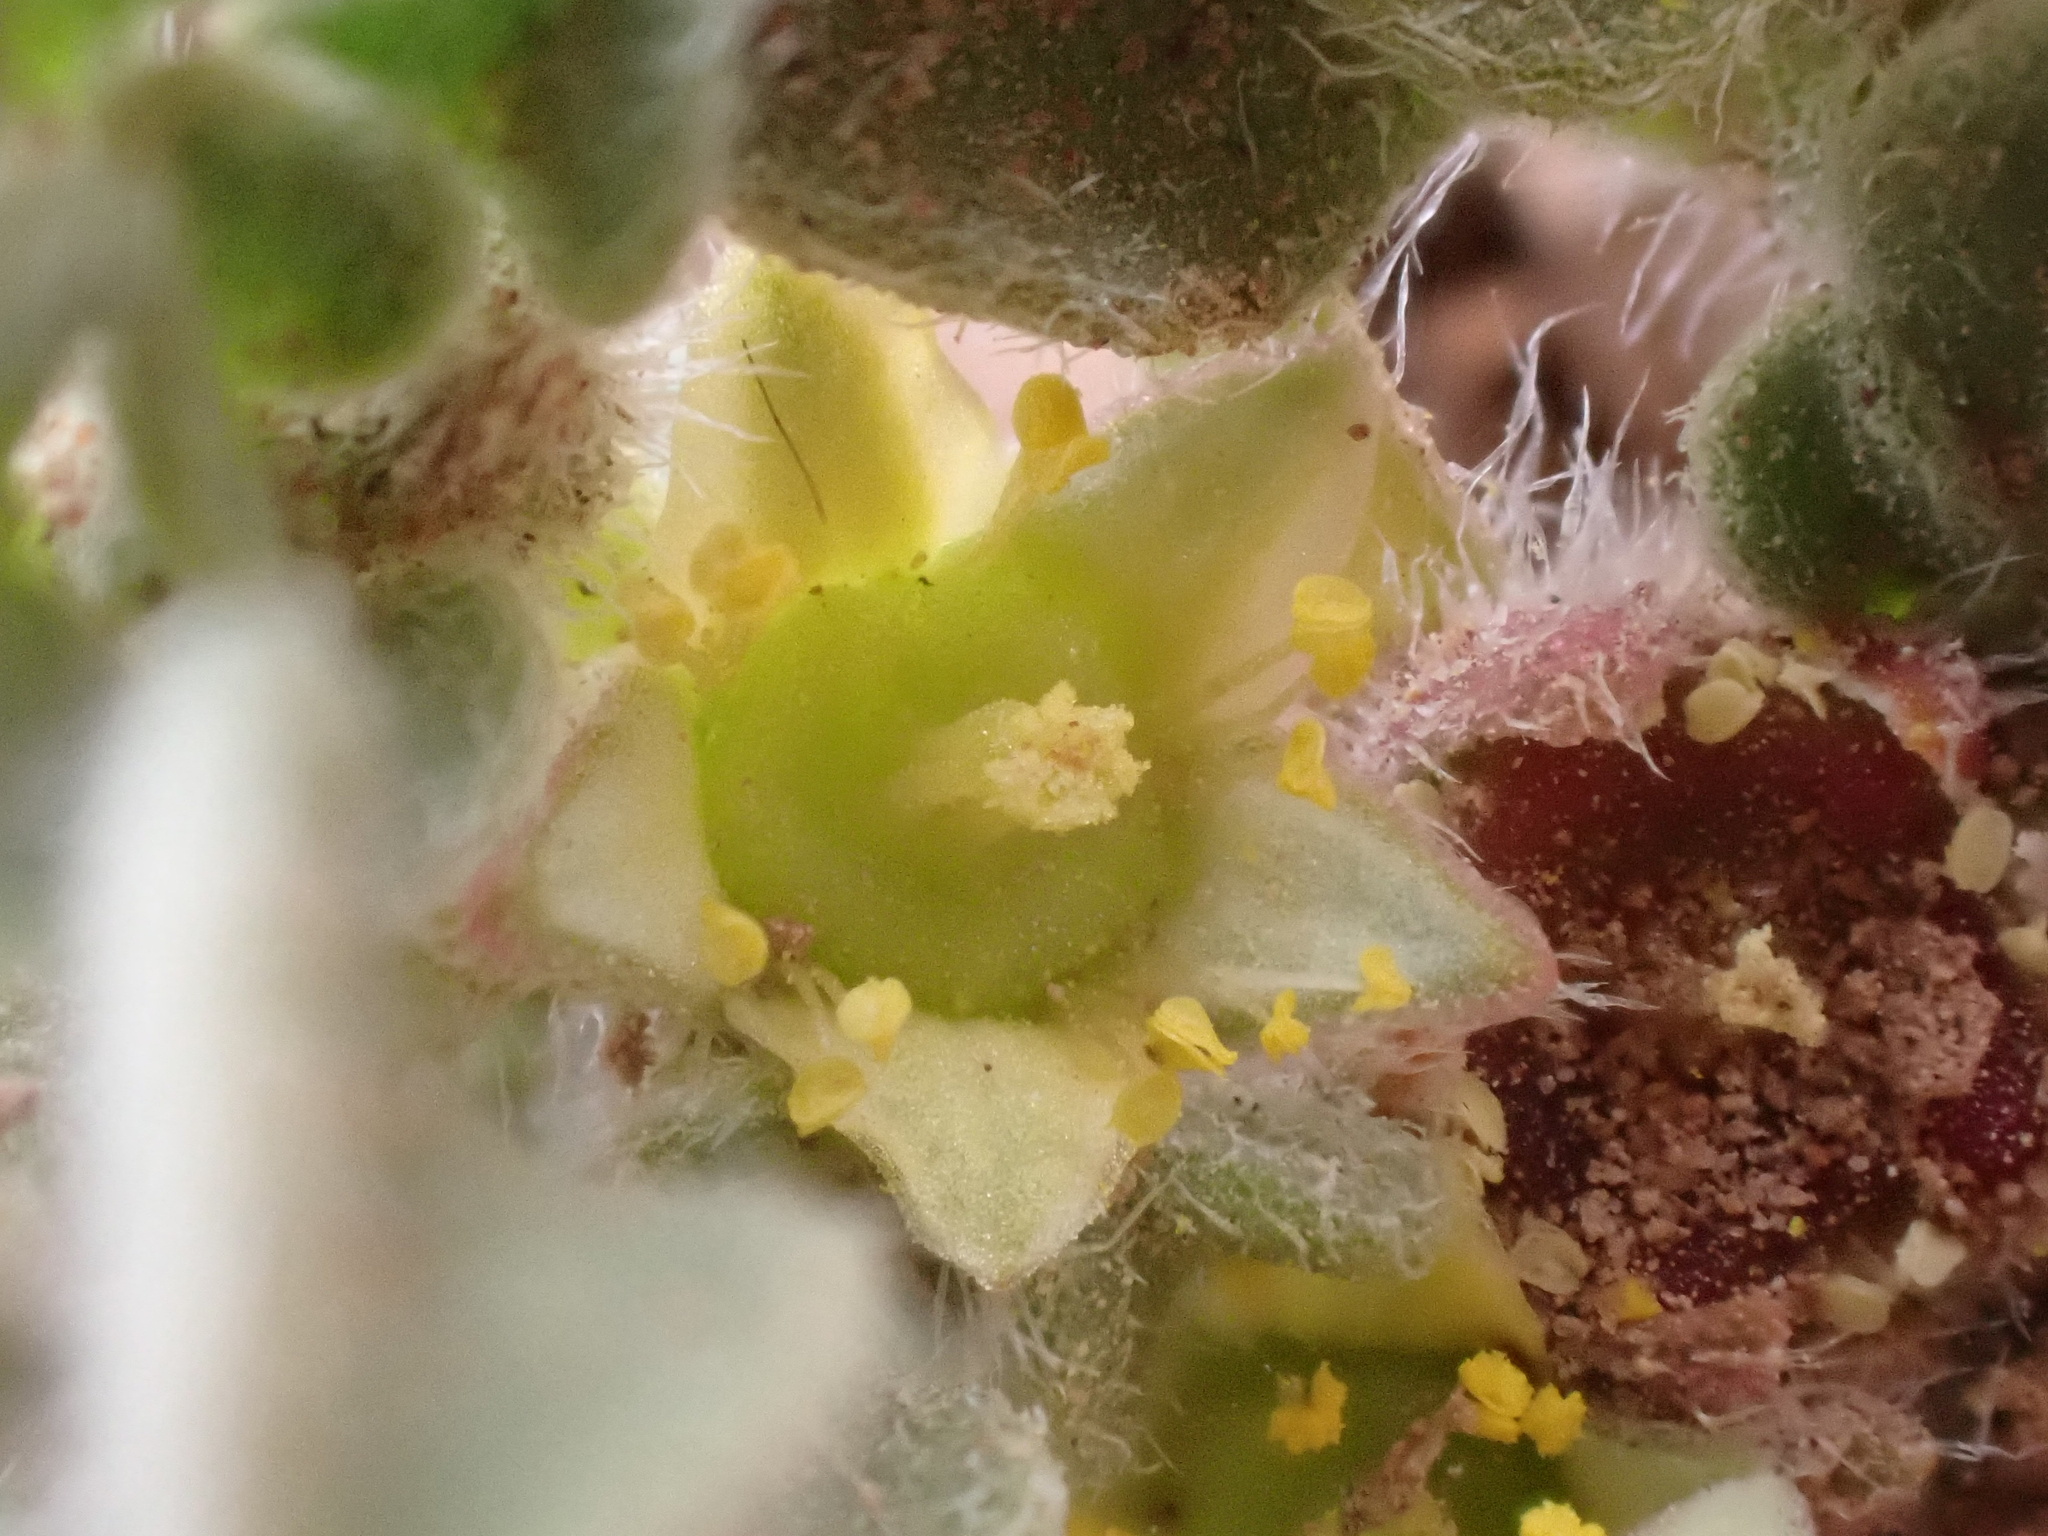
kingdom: Plantae
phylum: Tracheophyta
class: Magnoliopsida
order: Caryophyllales
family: Aizoaceae
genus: Aizoon
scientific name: Aizoon canariense
